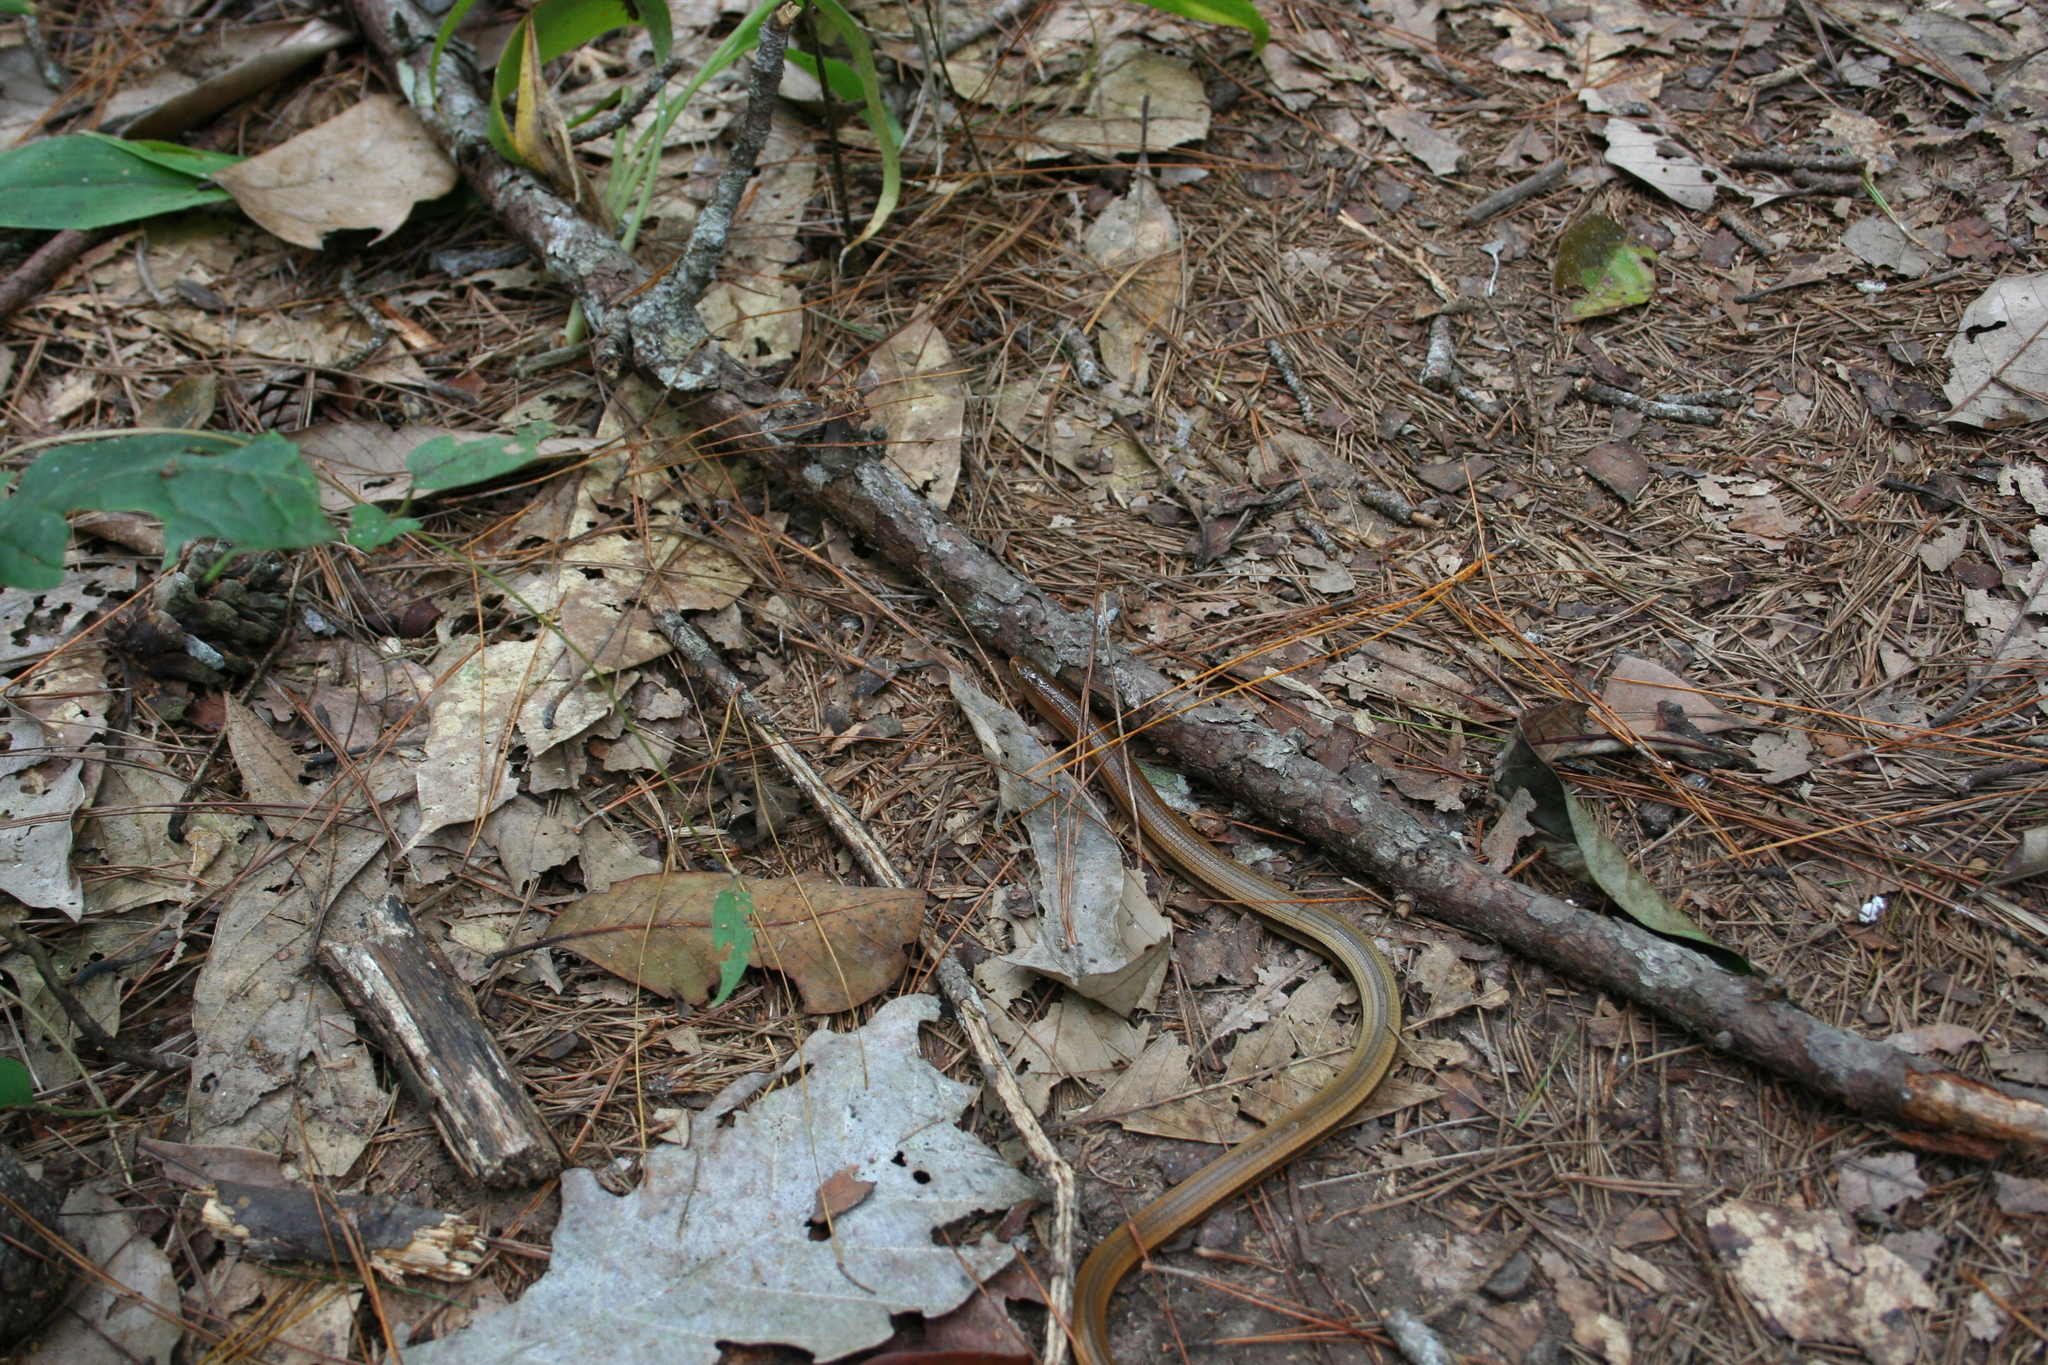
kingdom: Animalia
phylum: Chordata
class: Squamata
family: Anguidae
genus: Dopasia
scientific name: Dopasia gracilis
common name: Asian glass lizard
